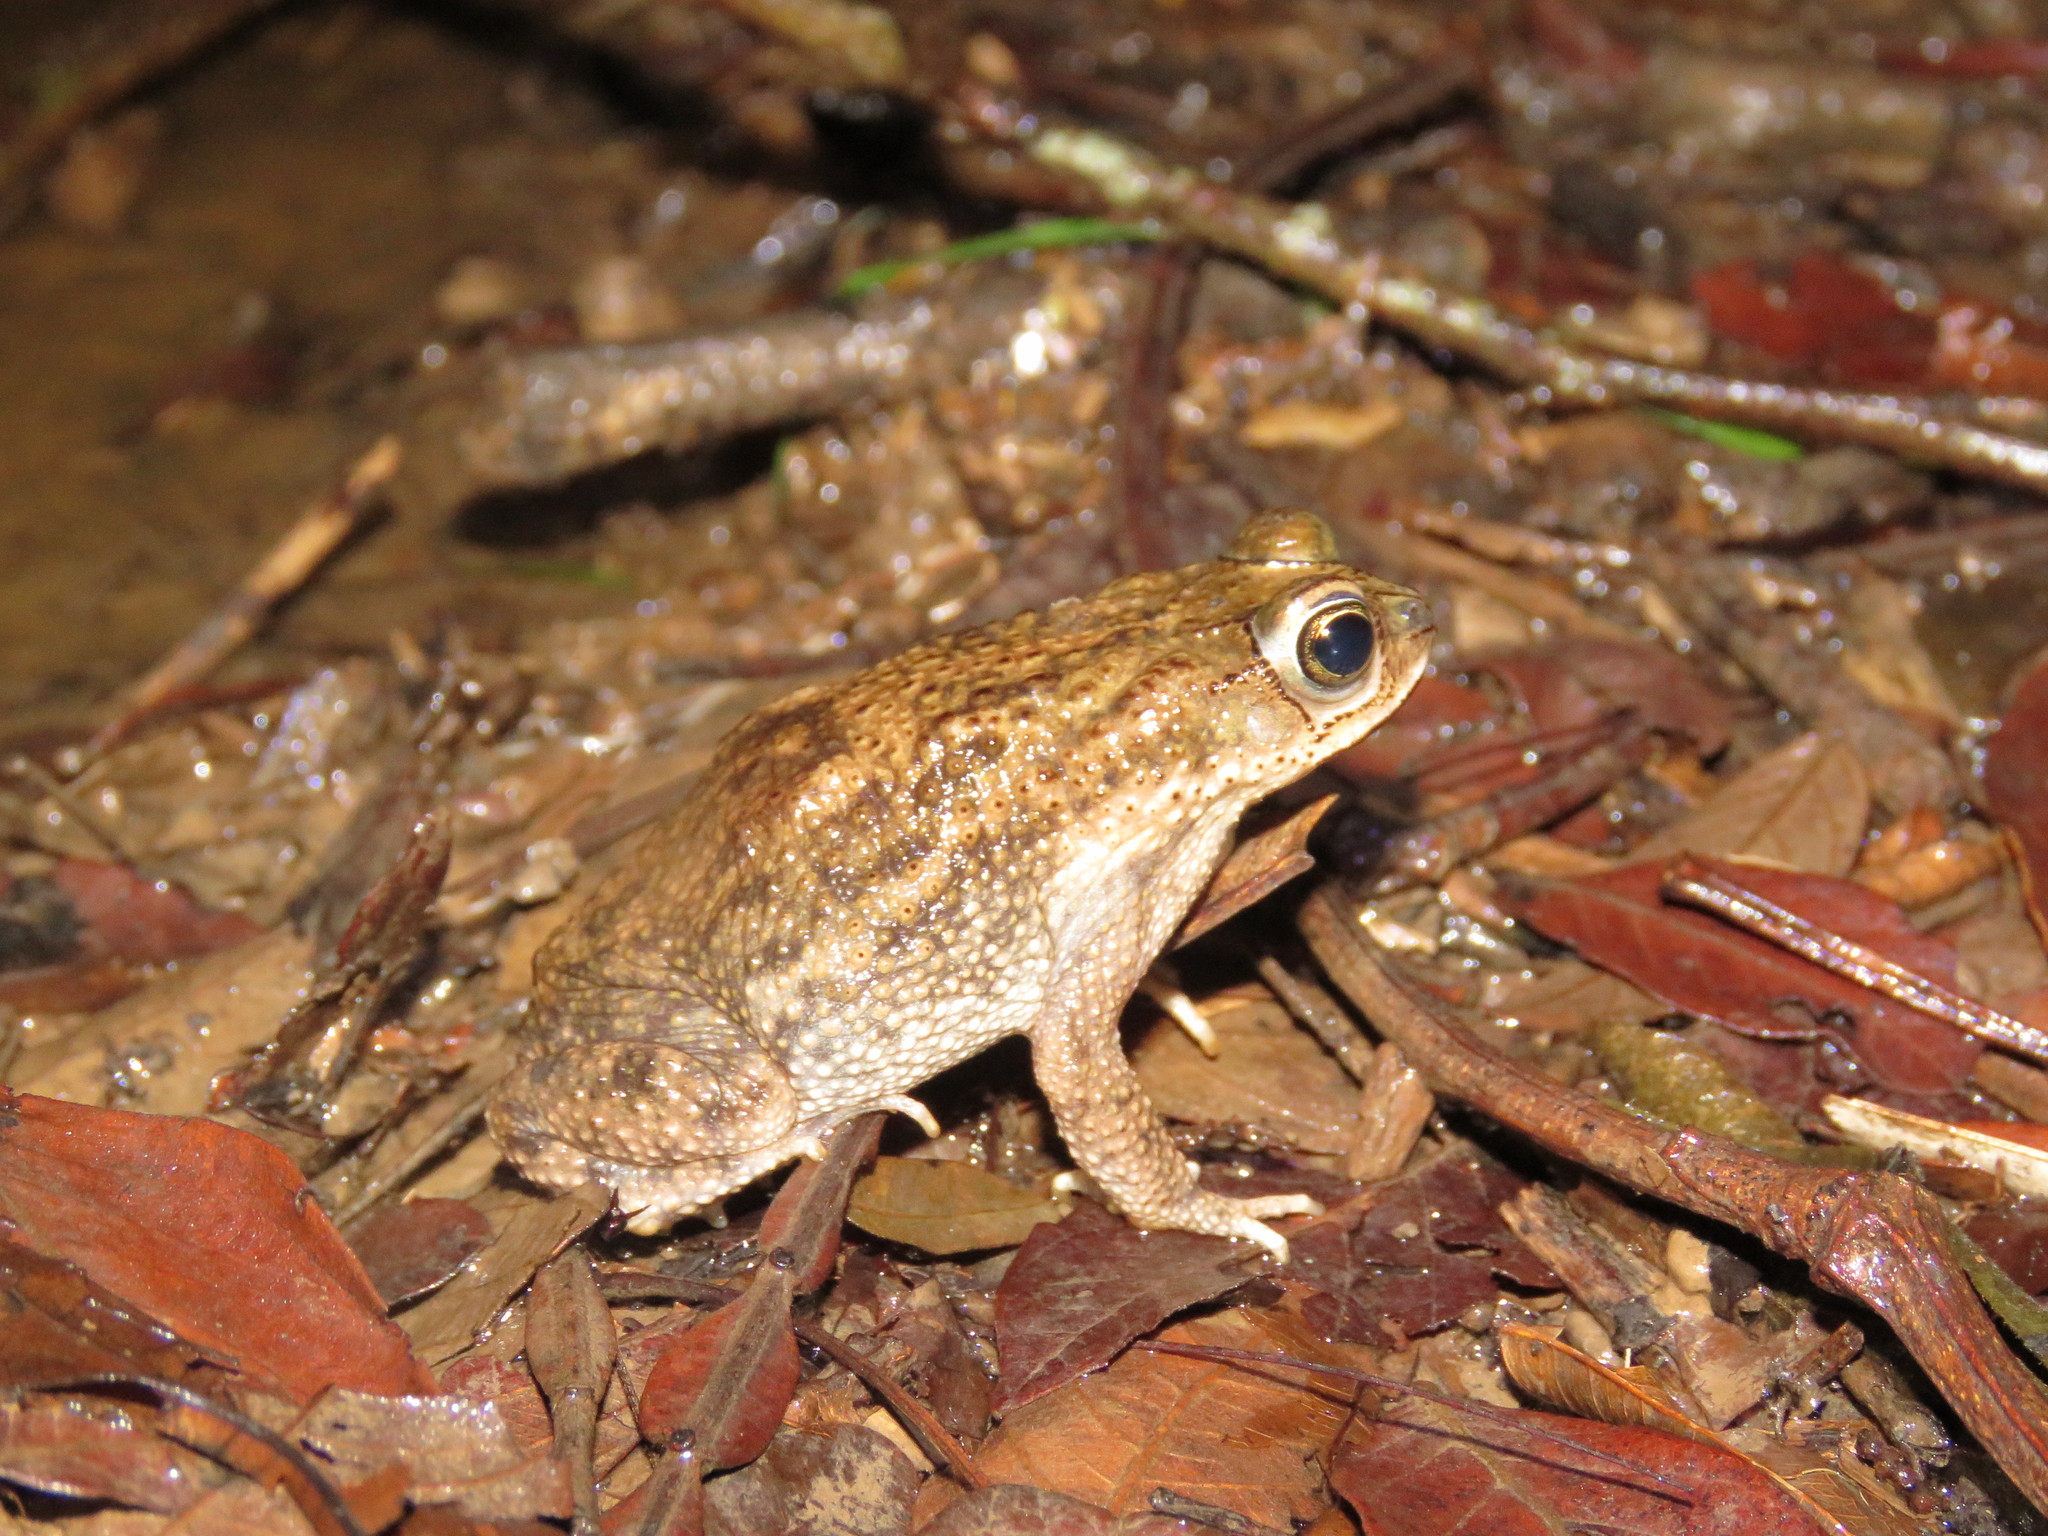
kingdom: Animalia
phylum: Chordata
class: Amphibia
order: Anura
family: Bufonidae
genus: Rhinella
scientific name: Rhinella major
